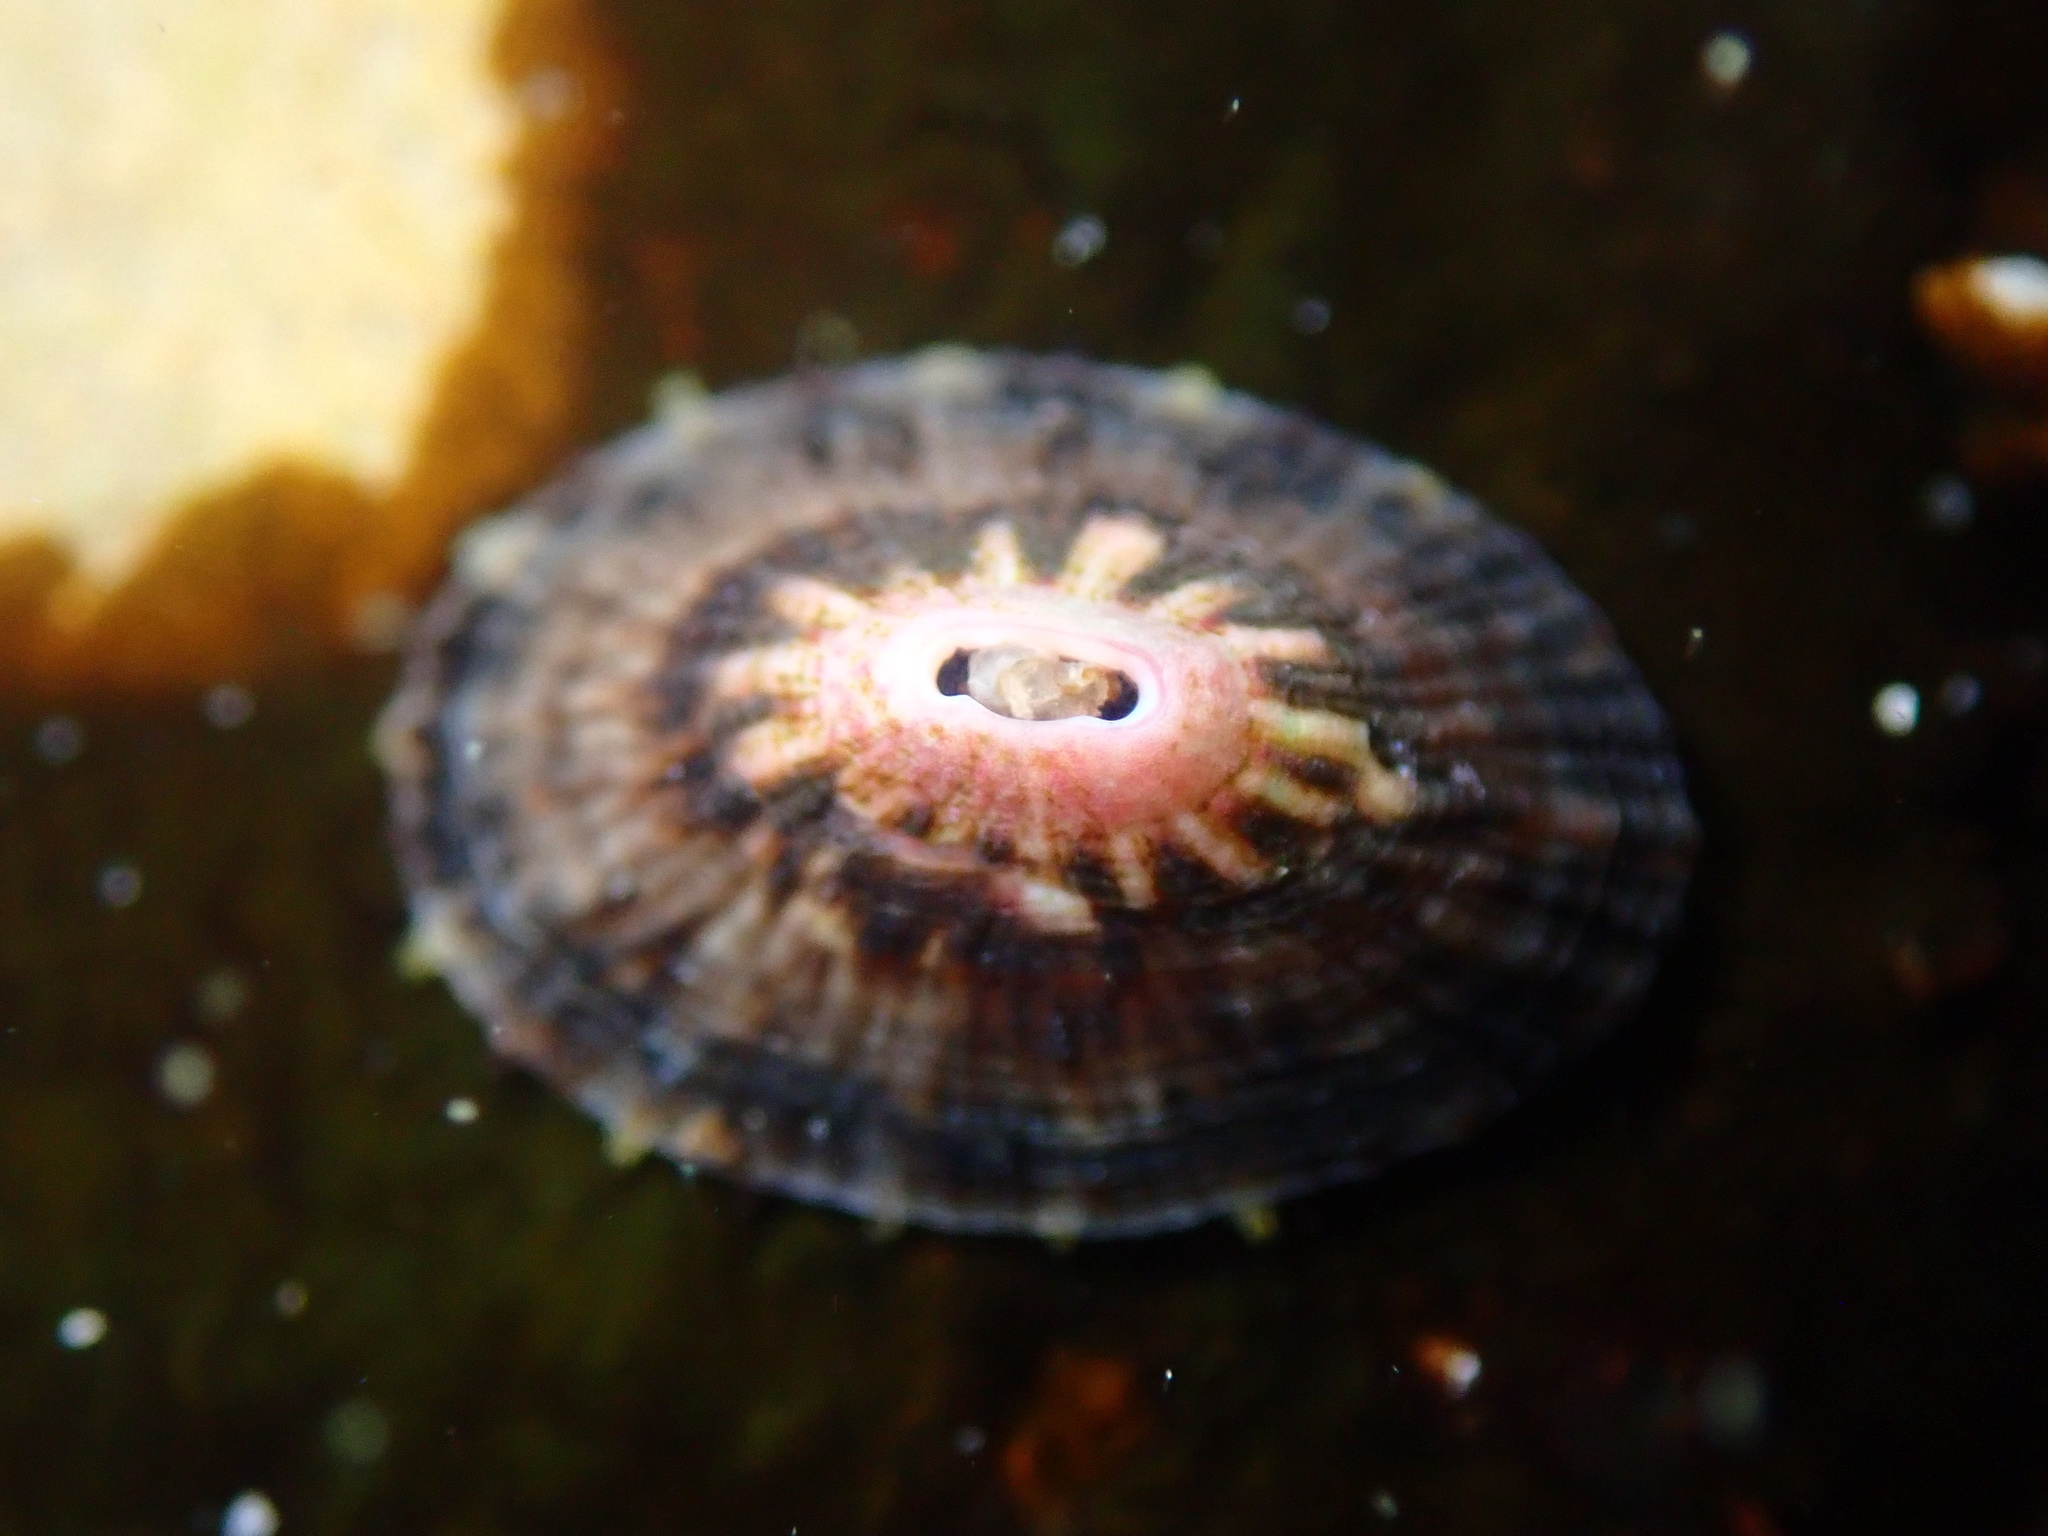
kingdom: Animalia
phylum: Mollusca
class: Gastropoda
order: Lepetellida
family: Fissurellidae
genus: Fissurella
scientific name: Fissurella volcano
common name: Volcano keyhole limpet
